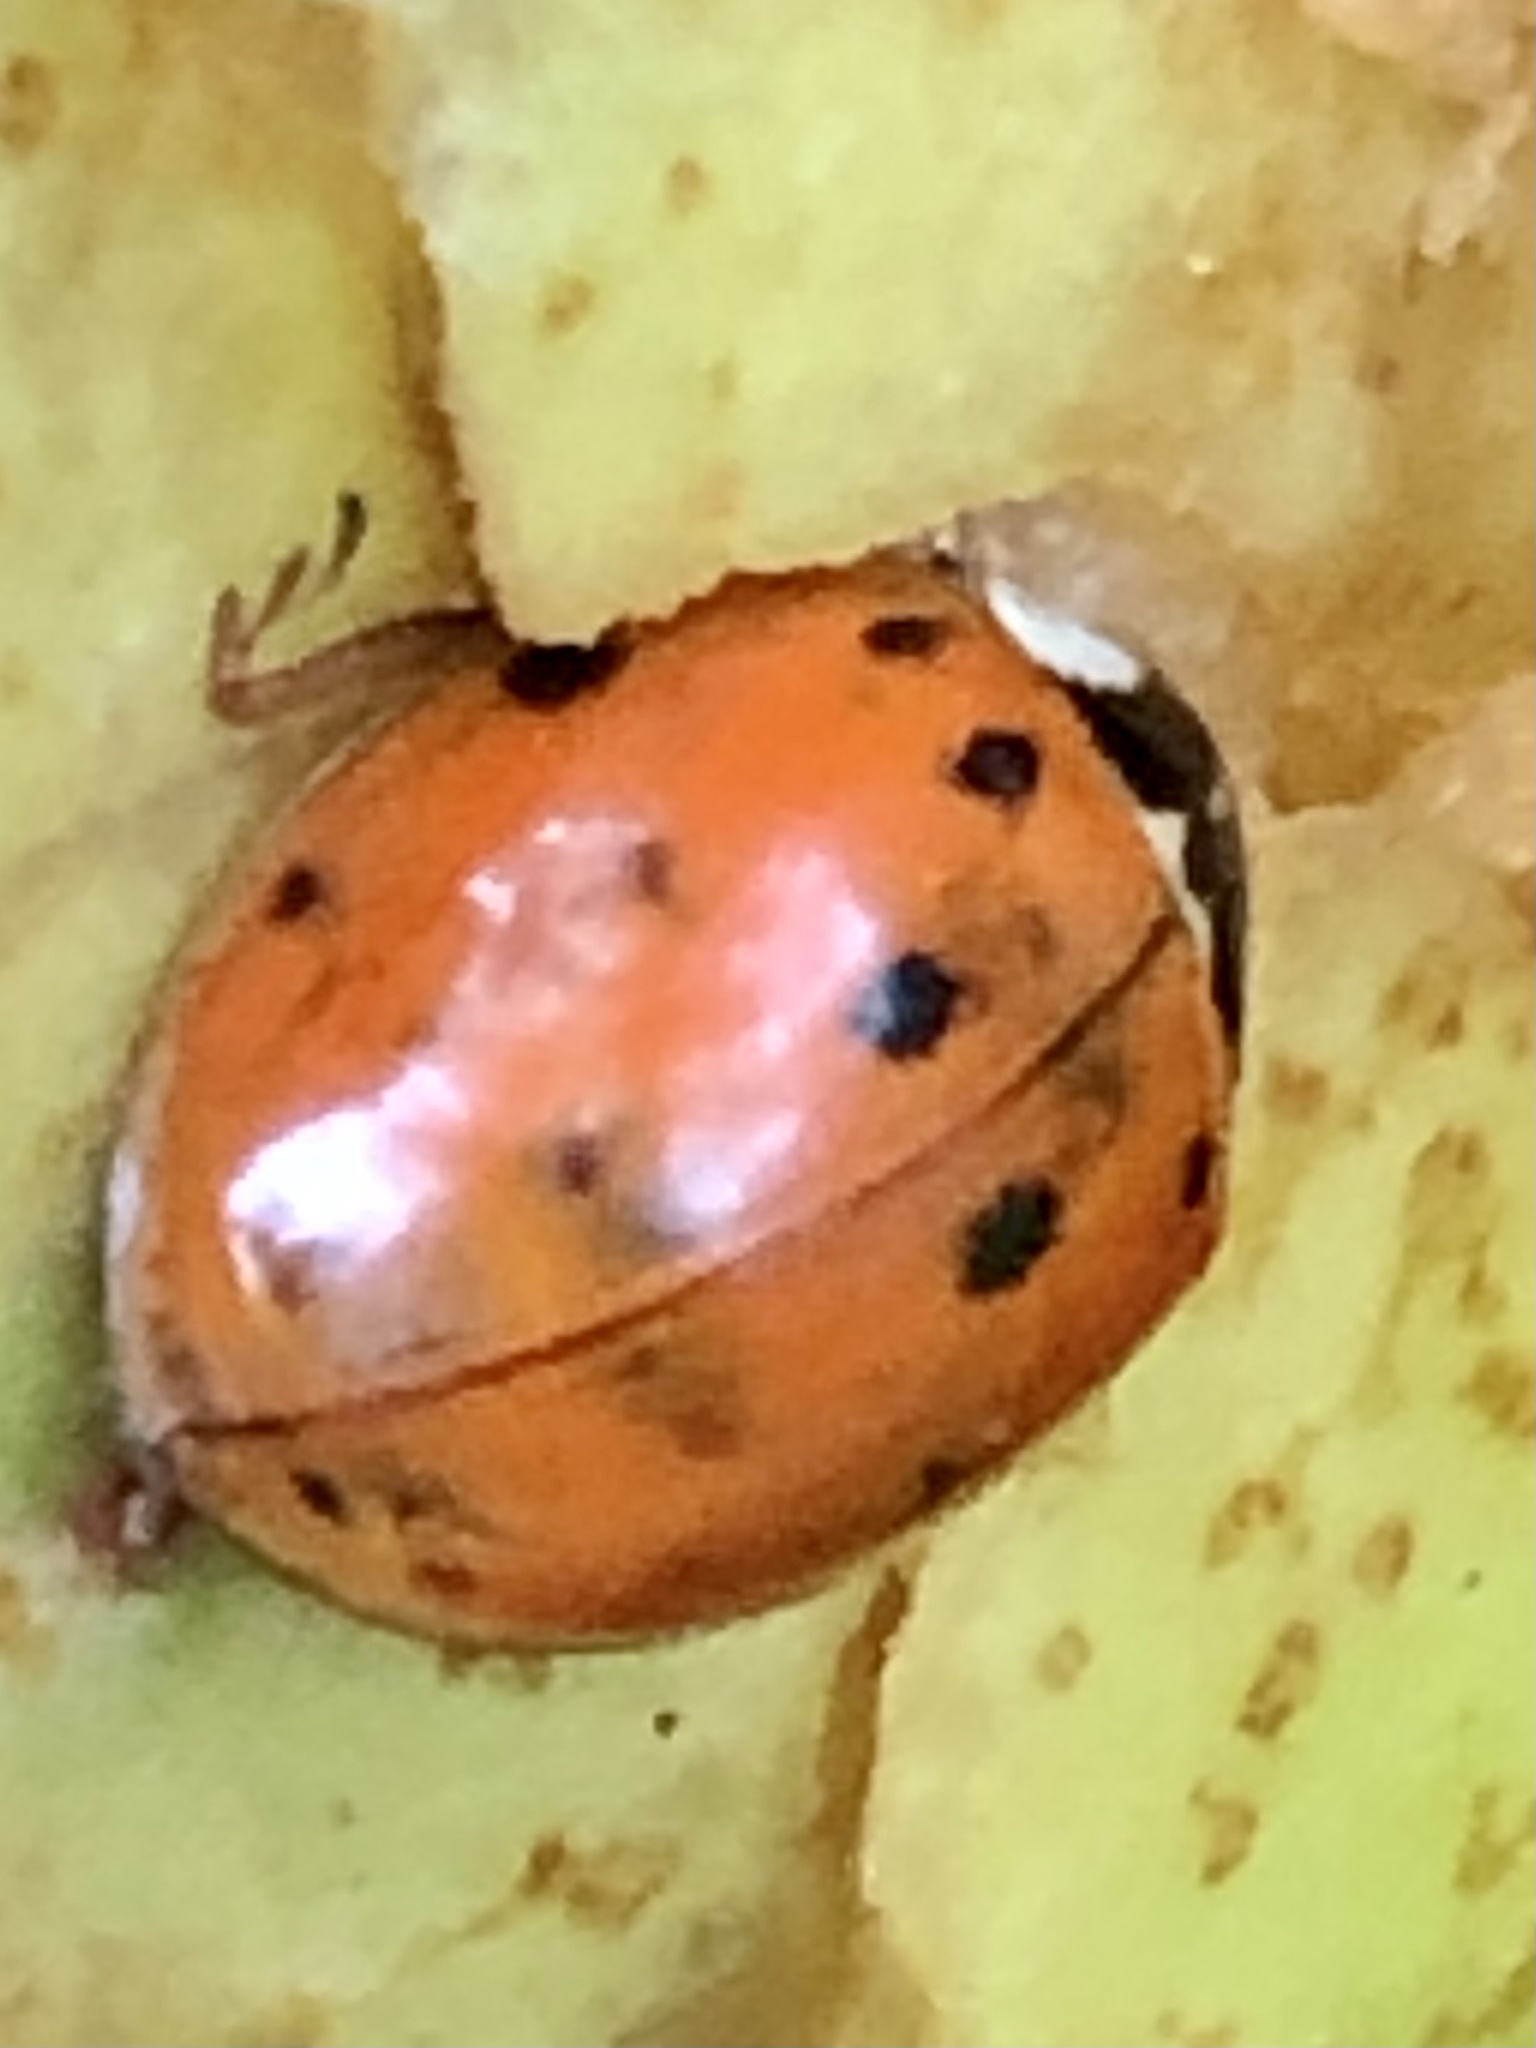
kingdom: Animalia
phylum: Arthropoda
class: Insecta
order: Coleoptera
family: Coccinellidae
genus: Harmonia
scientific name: Harmonia axyridis
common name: Harlequin ladybird
